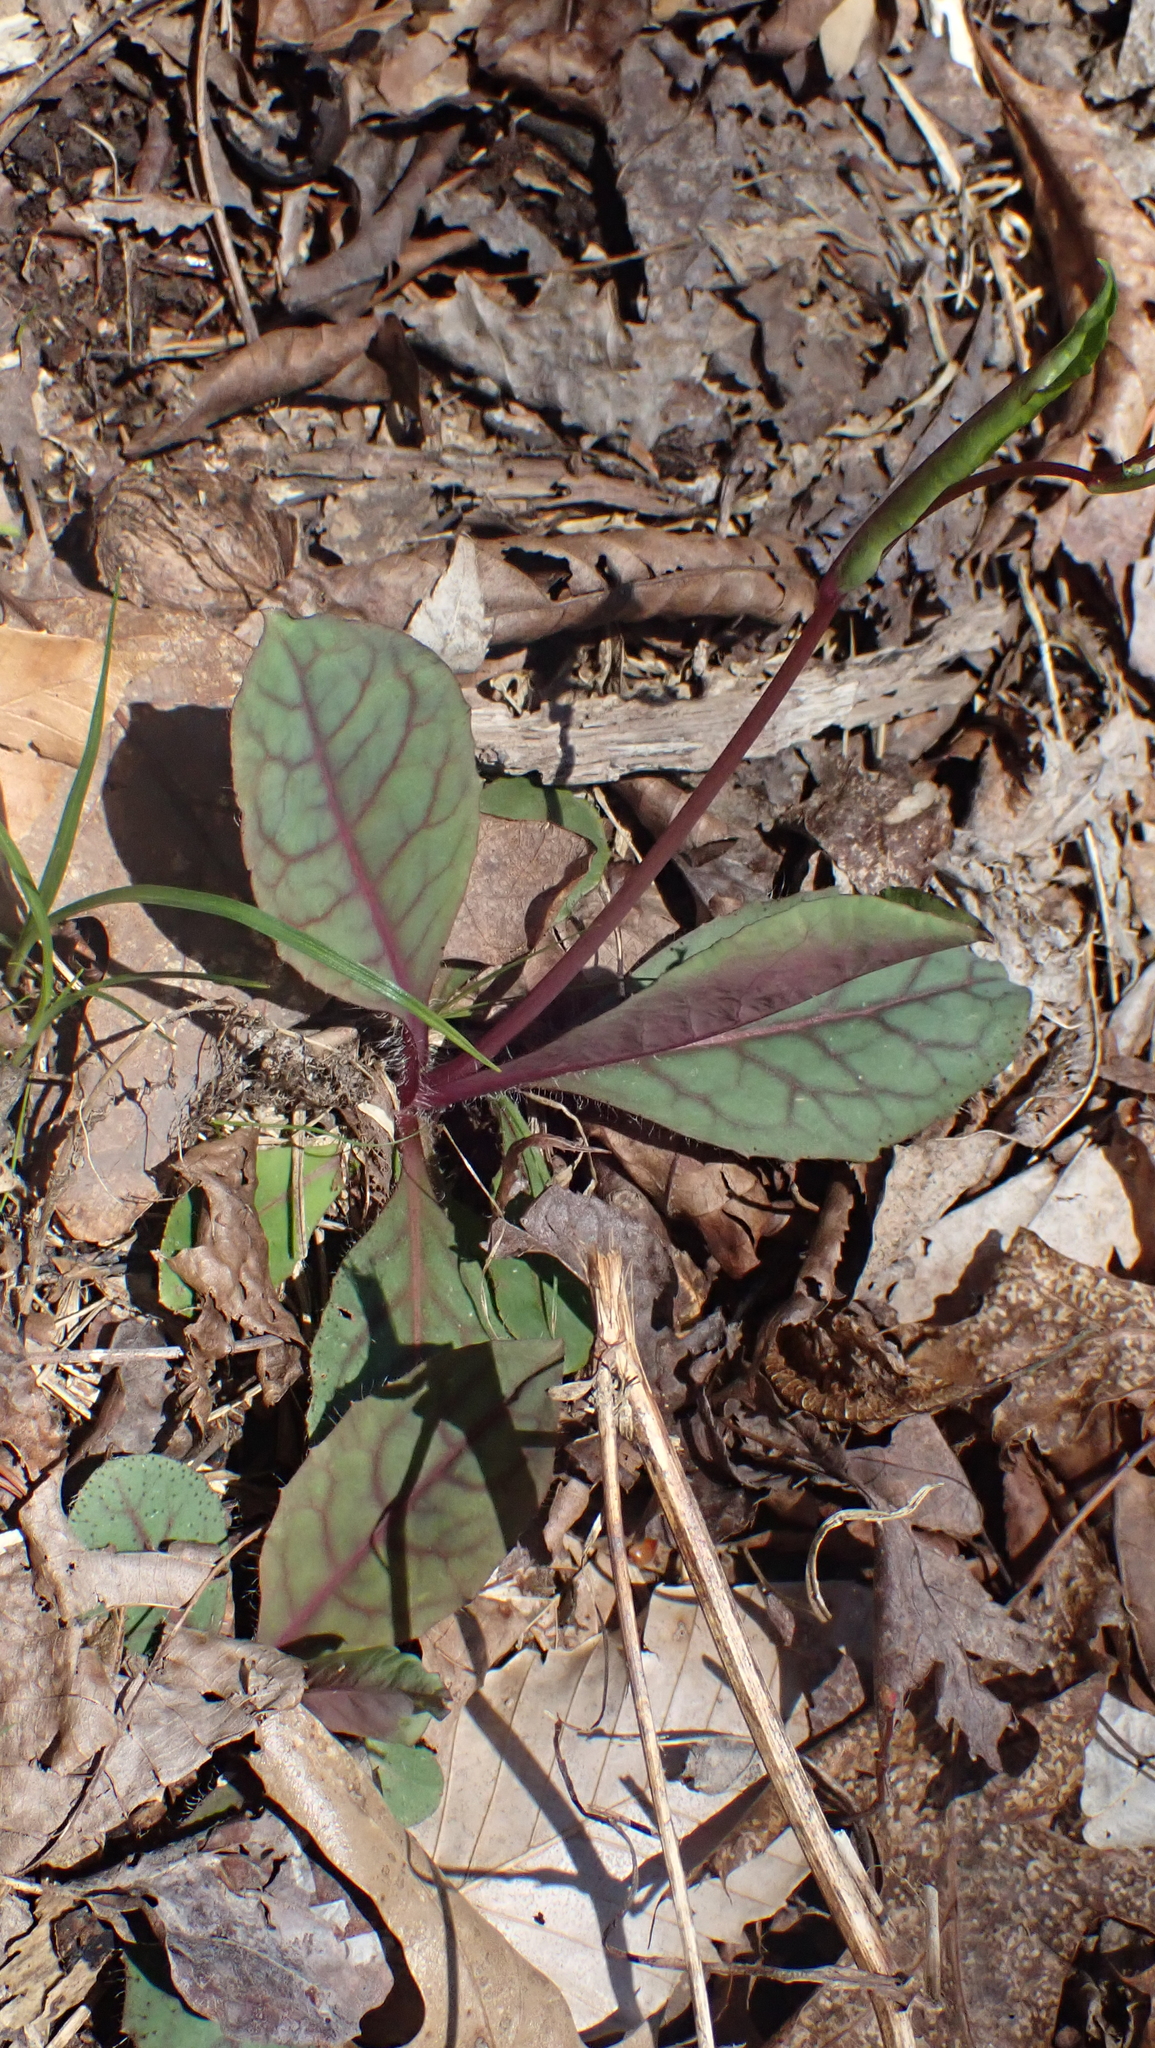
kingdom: Plantae
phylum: Tracheophyta
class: Magnoliopsida
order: Asterales
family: Asteraceae
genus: Hieracium
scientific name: Hieracium venosum
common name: Rattlesnake hawkweed
